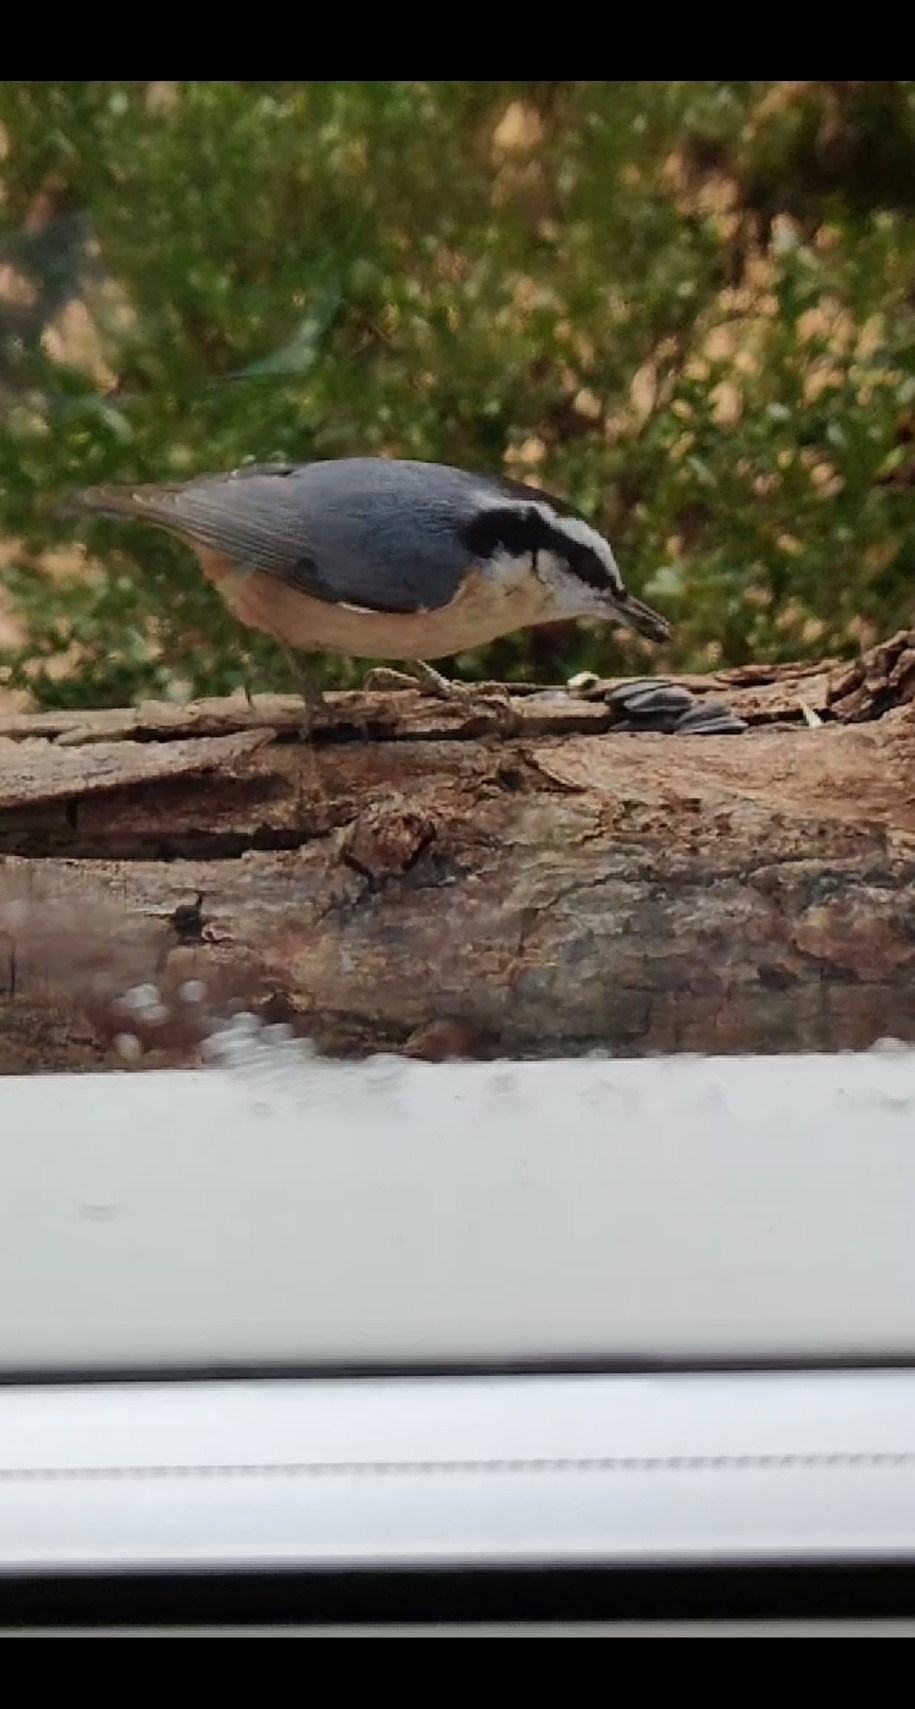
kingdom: Animalia
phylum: Chordata
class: Aves
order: Passeriformes
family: Sittidae
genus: Sitta
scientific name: Sitta canadensis
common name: Red-breasted nuthatch
